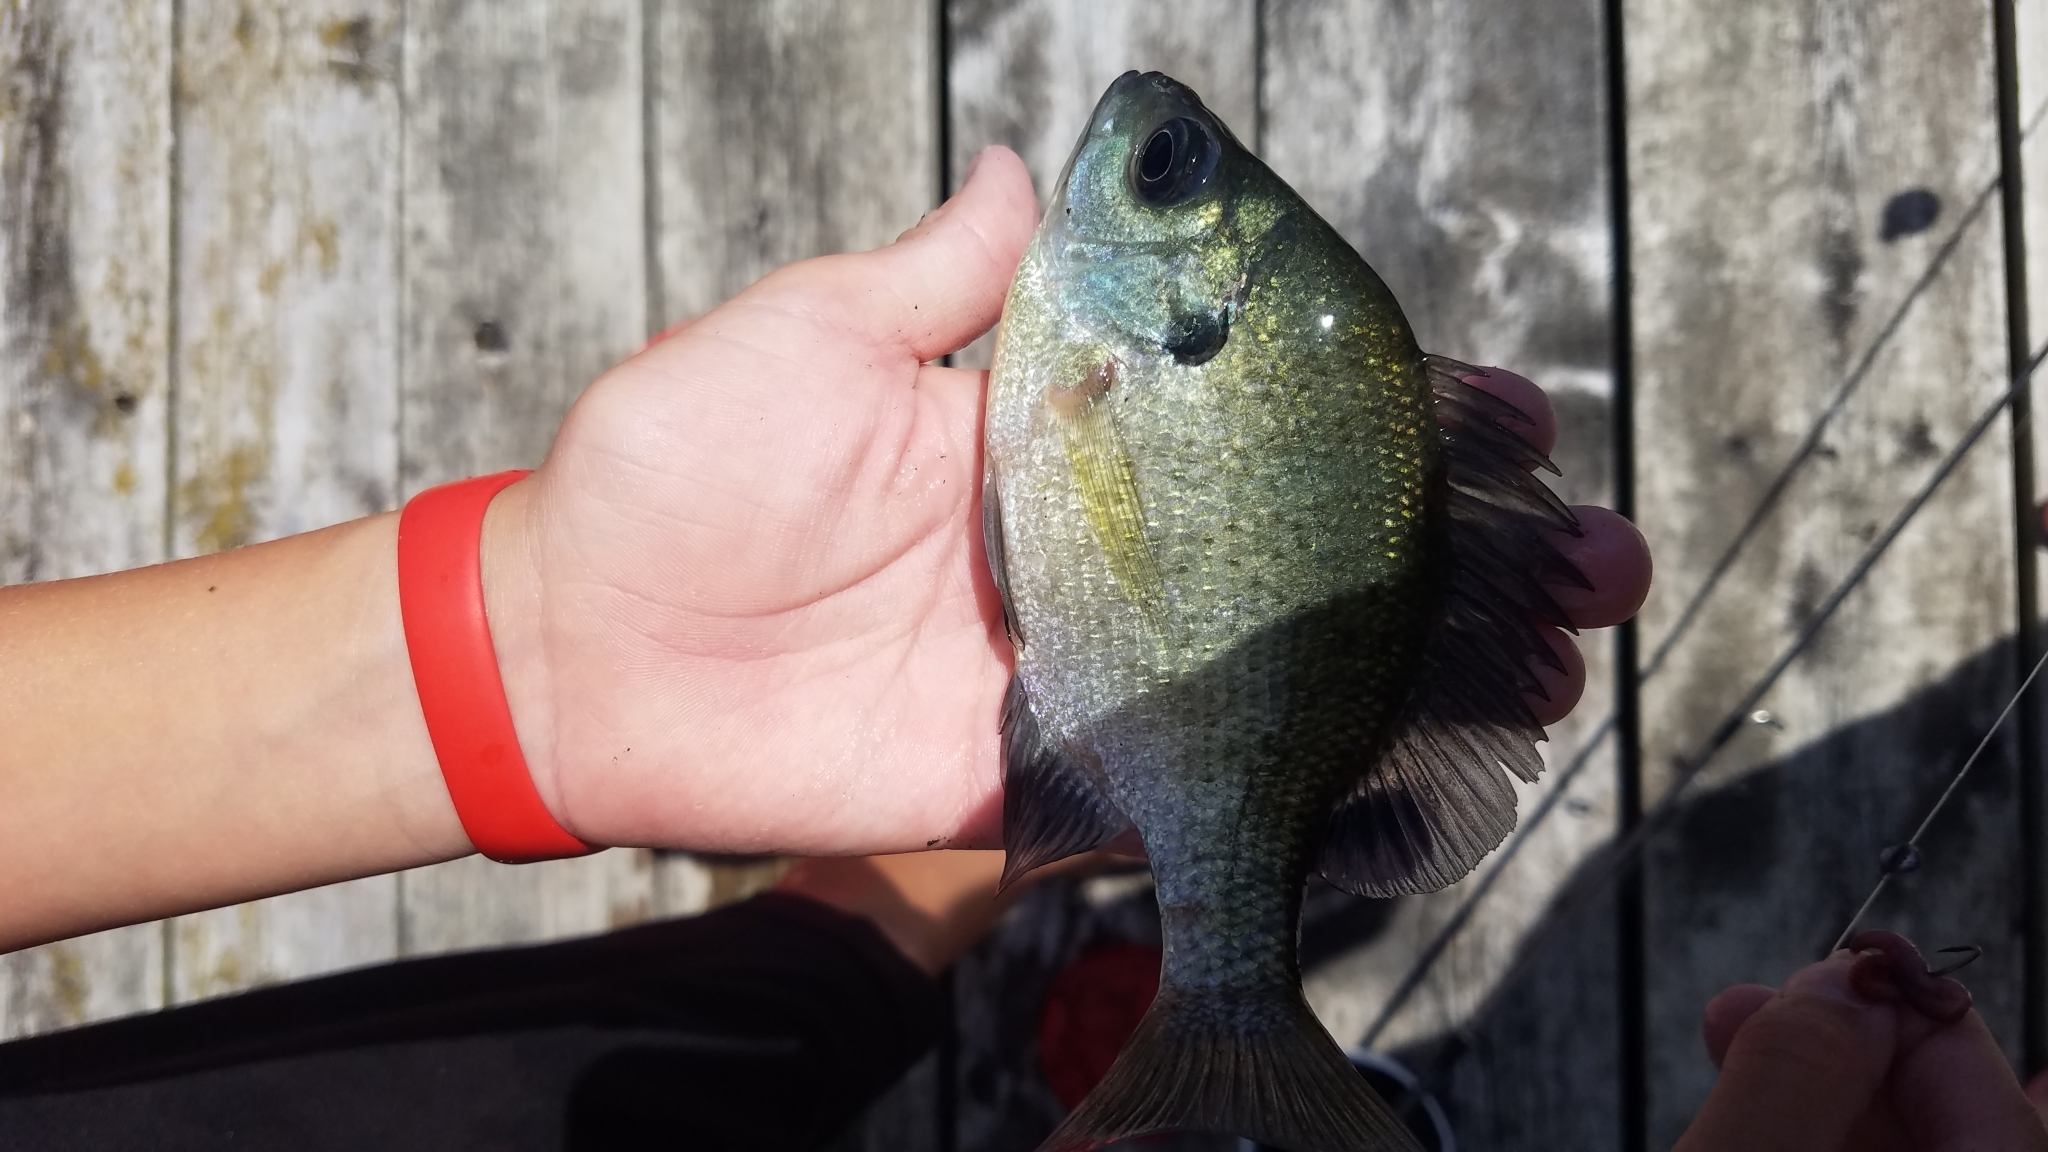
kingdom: Animalia
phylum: Chordata
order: Perciformes
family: Centrarchidae
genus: Lepomis
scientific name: Lepomis macrochirus
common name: Bluegill
